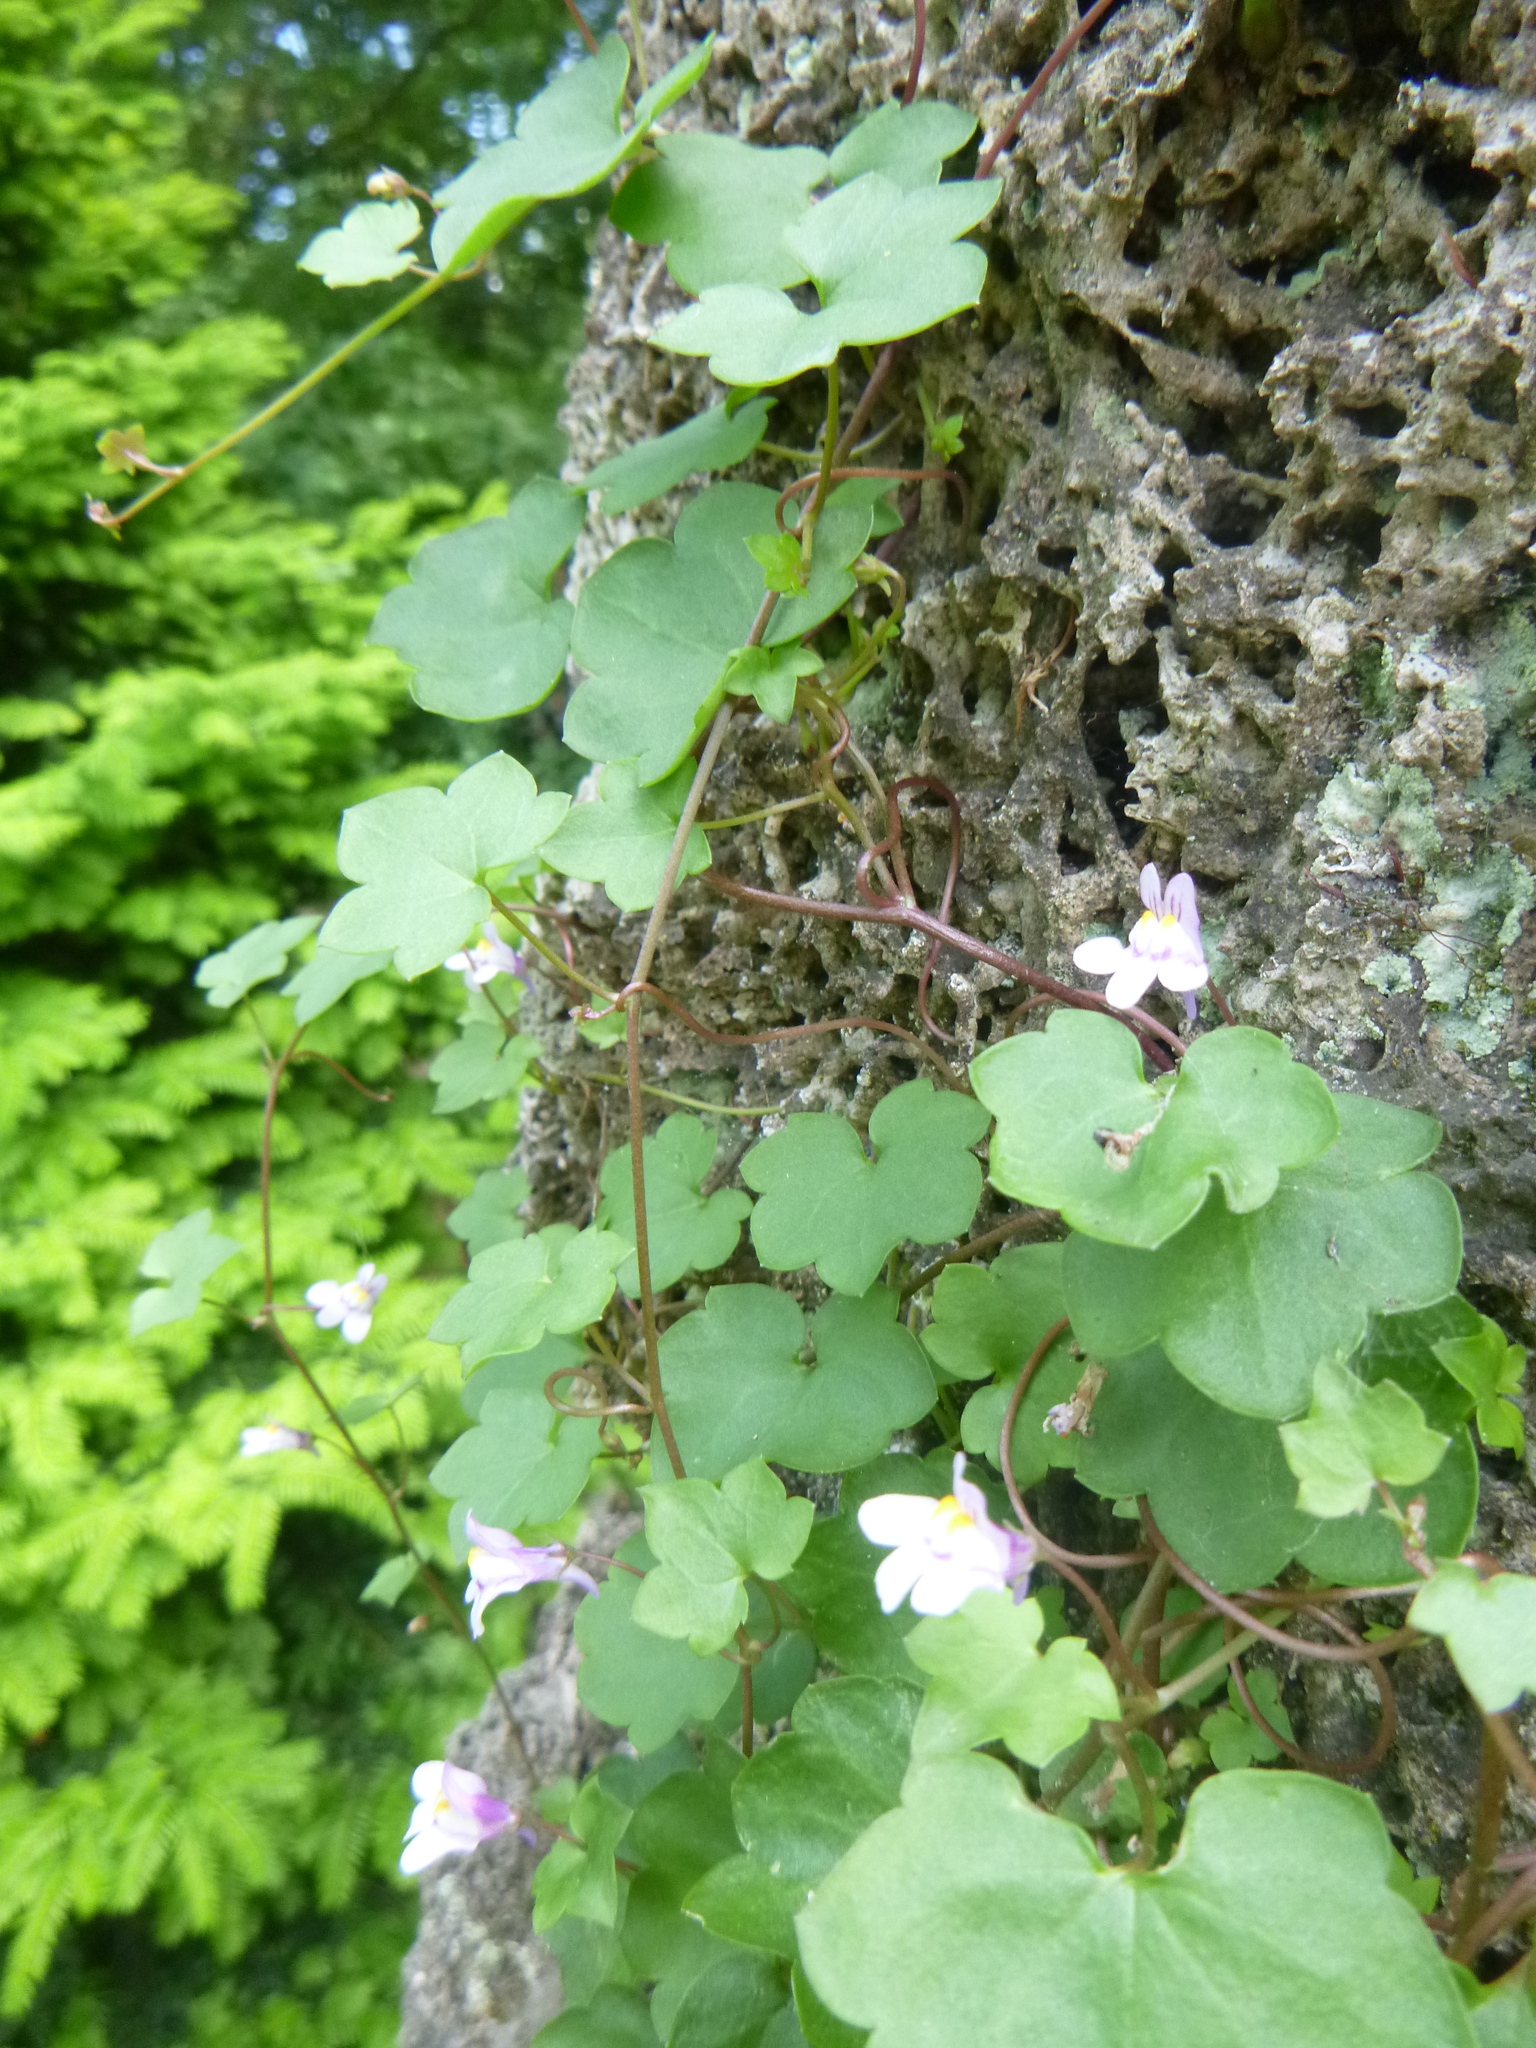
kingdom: Plantae
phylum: Tracheophyta
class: Magnoliopsida
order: Lamiales
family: Plantaginaceae
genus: Cymbalaria
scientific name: Cymbalaria muralis
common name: Ivy-leaved toadflax
